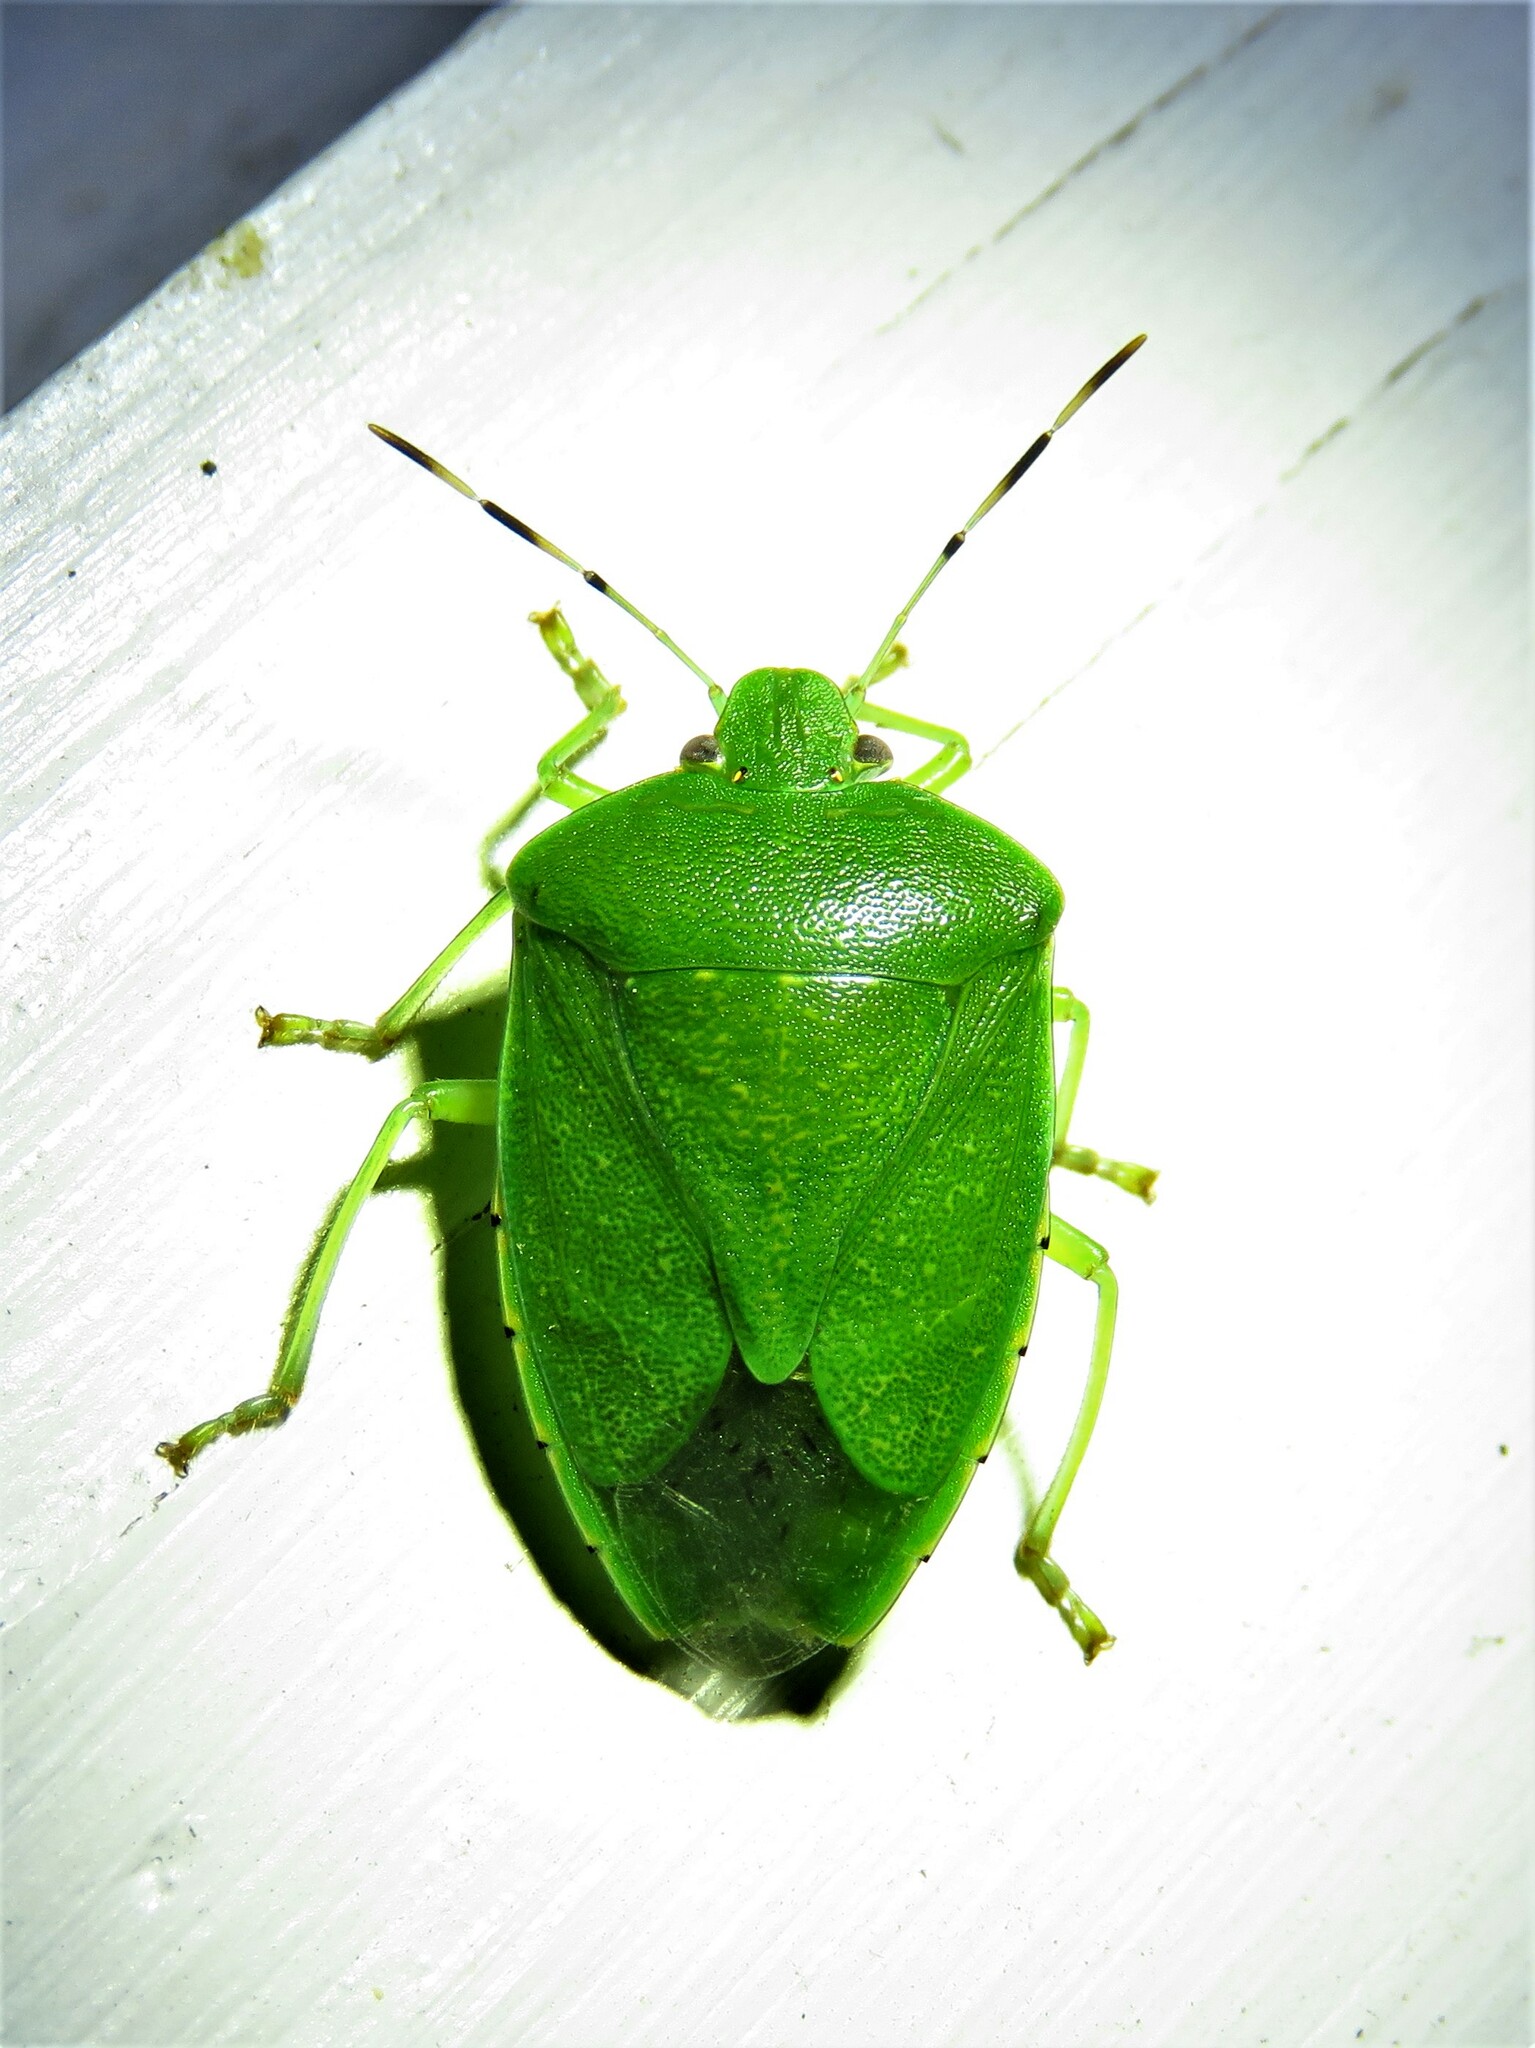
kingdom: Animalia
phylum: Arthropoda
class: Insecta
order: Hemiptera
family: Pentatomidae
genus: Chinavia
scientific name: Chinavia hilaris
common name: Green stink bug
